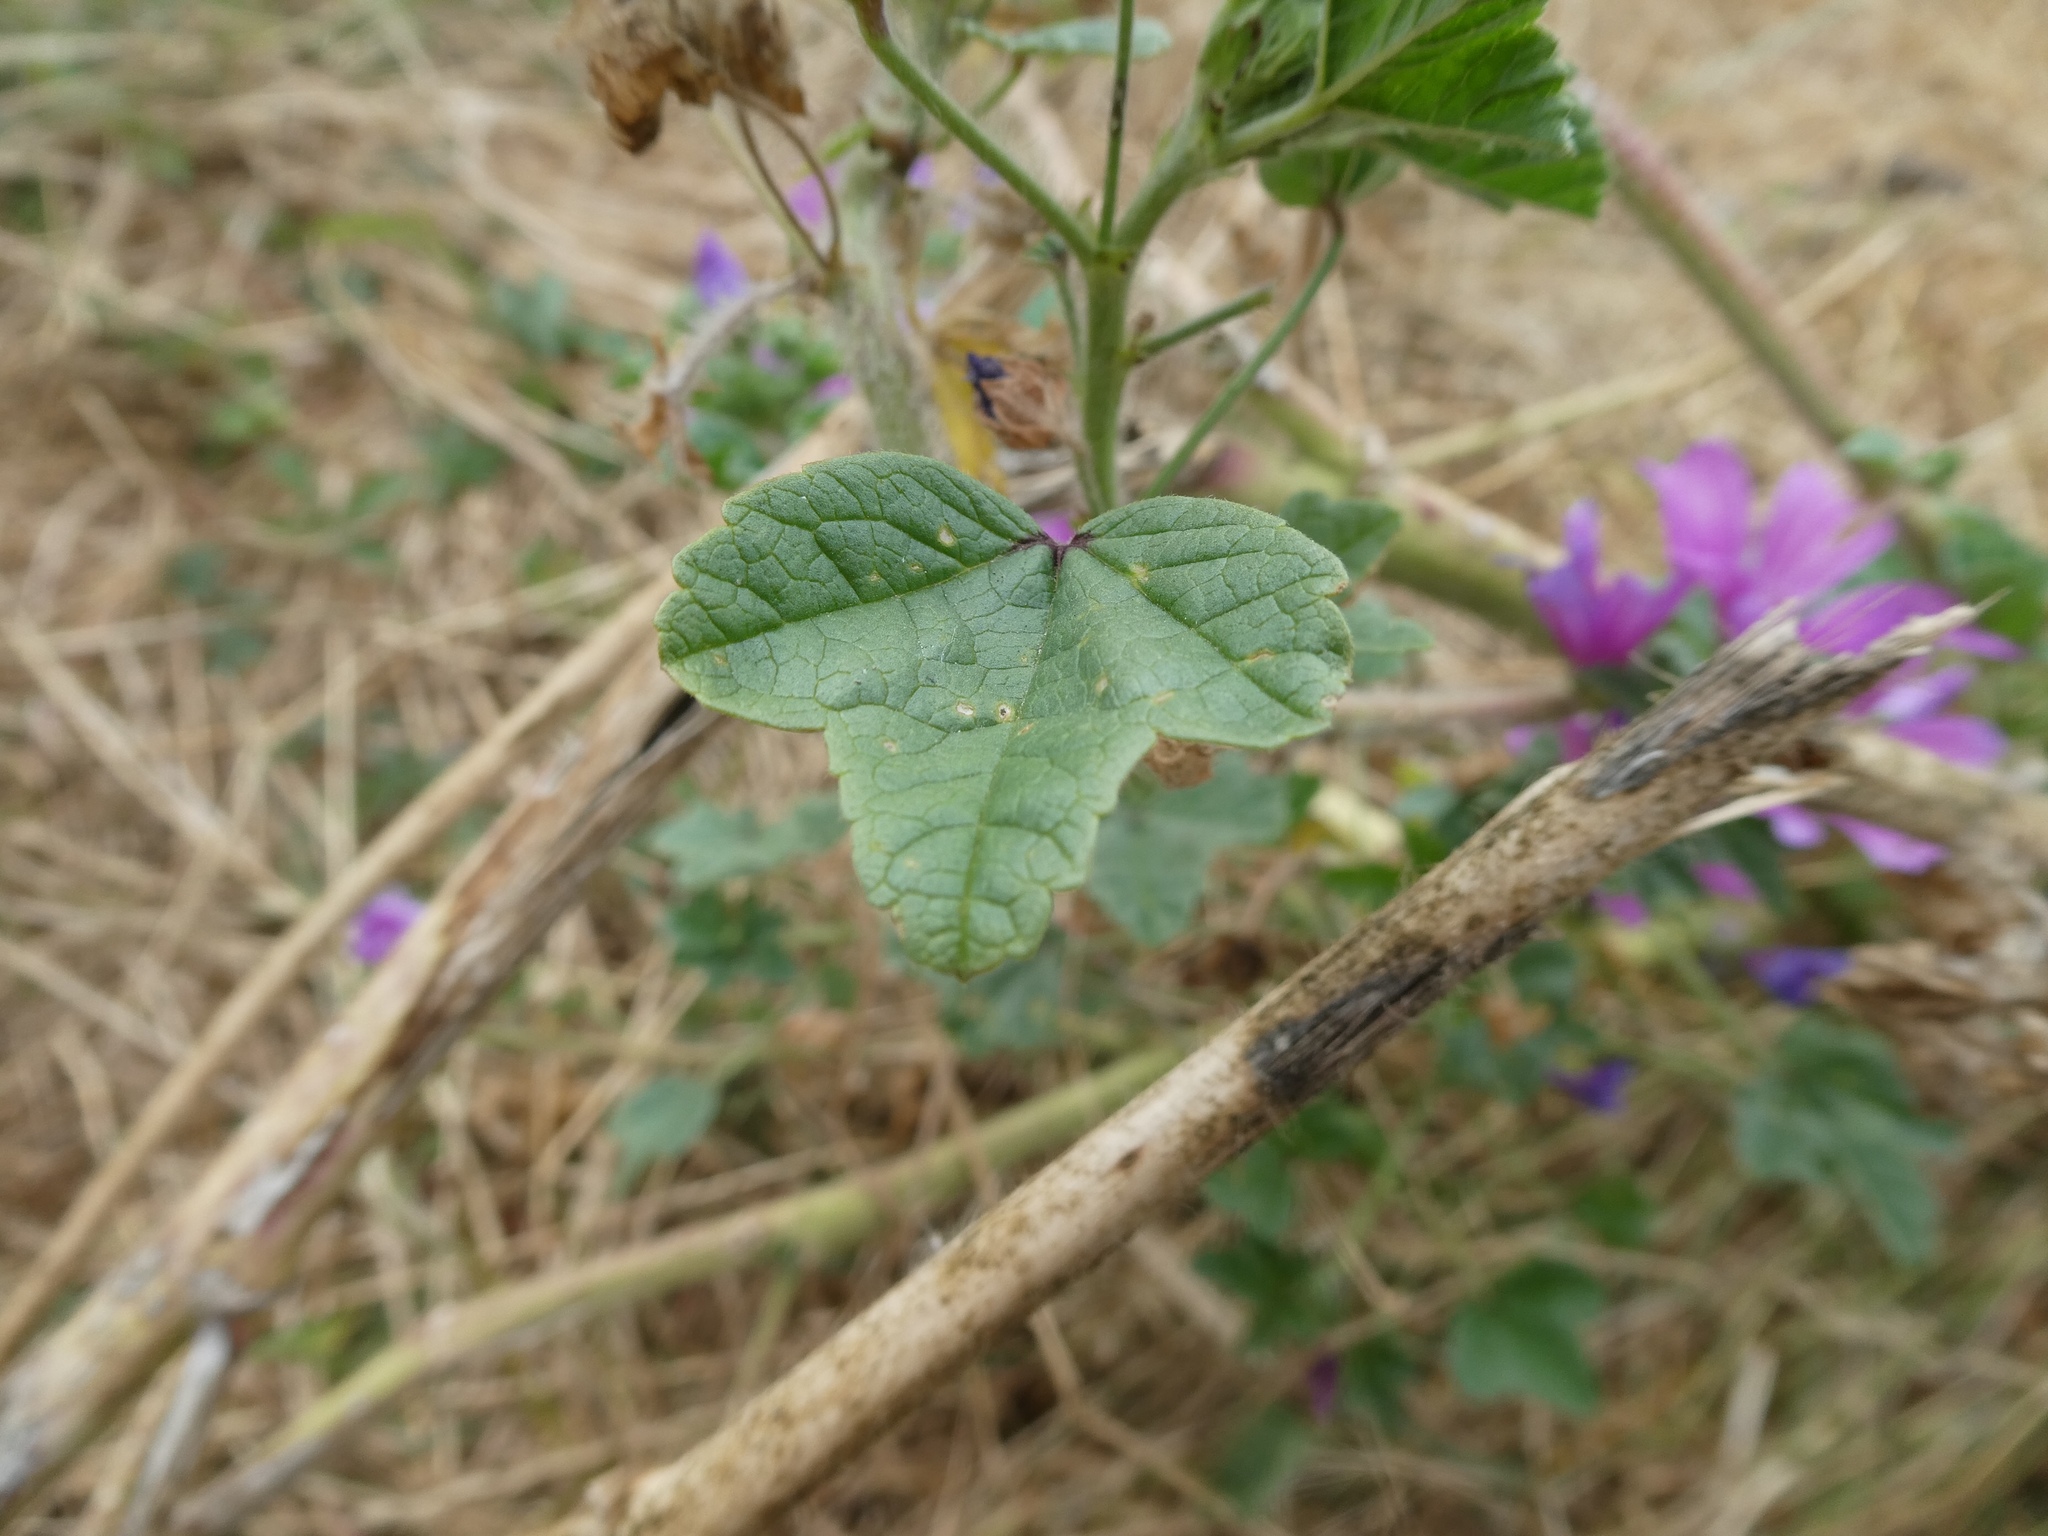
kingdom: Plantae
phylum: Tracheophyta
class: Magnoliopsida
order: Malvales
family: Malvaceae
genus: Malva
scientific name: Malva sylvestris
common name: Common mallow
